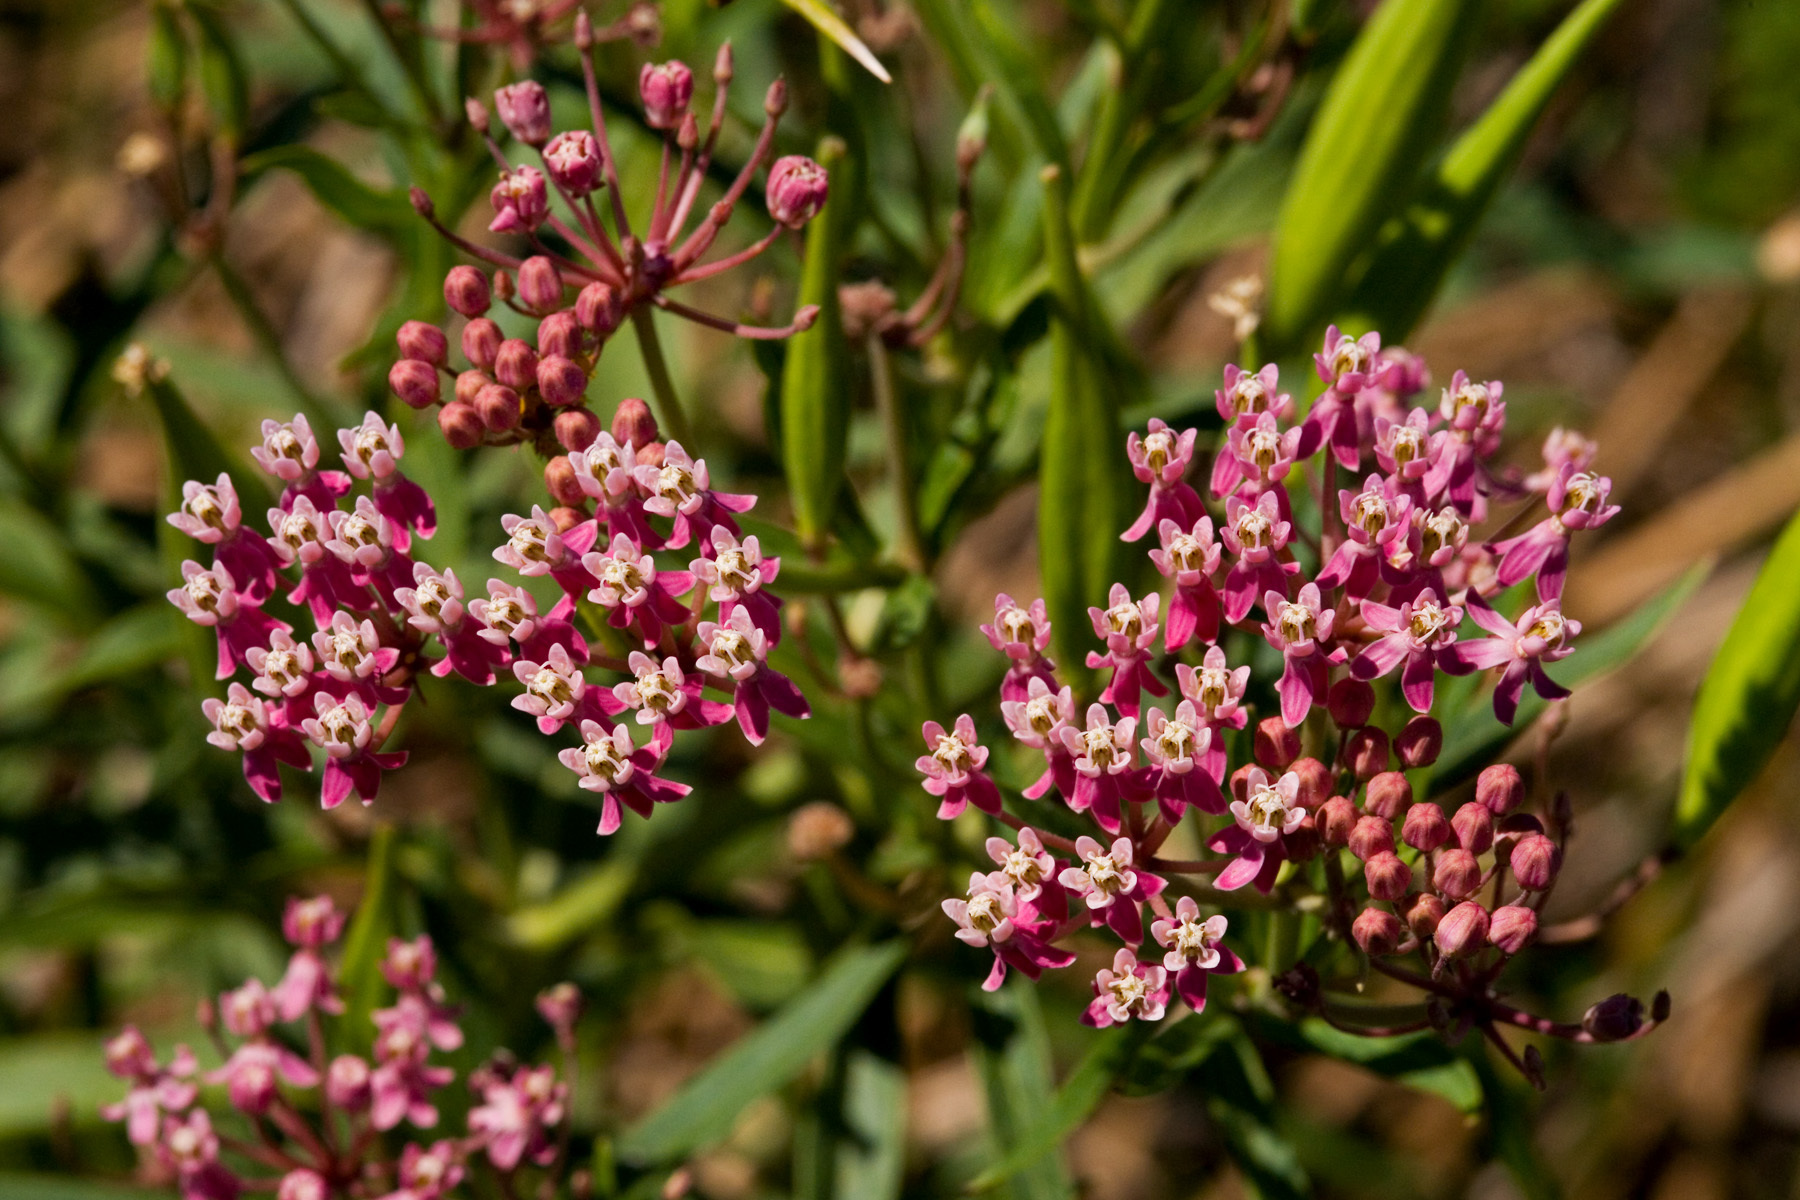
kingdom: Plantae
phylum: Tracheophyta
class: Magnoliopsida
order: Gentianales
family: Apocynaceae
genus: Asclepias
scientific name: Asclepias incarnata
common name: Swamp milkweed
